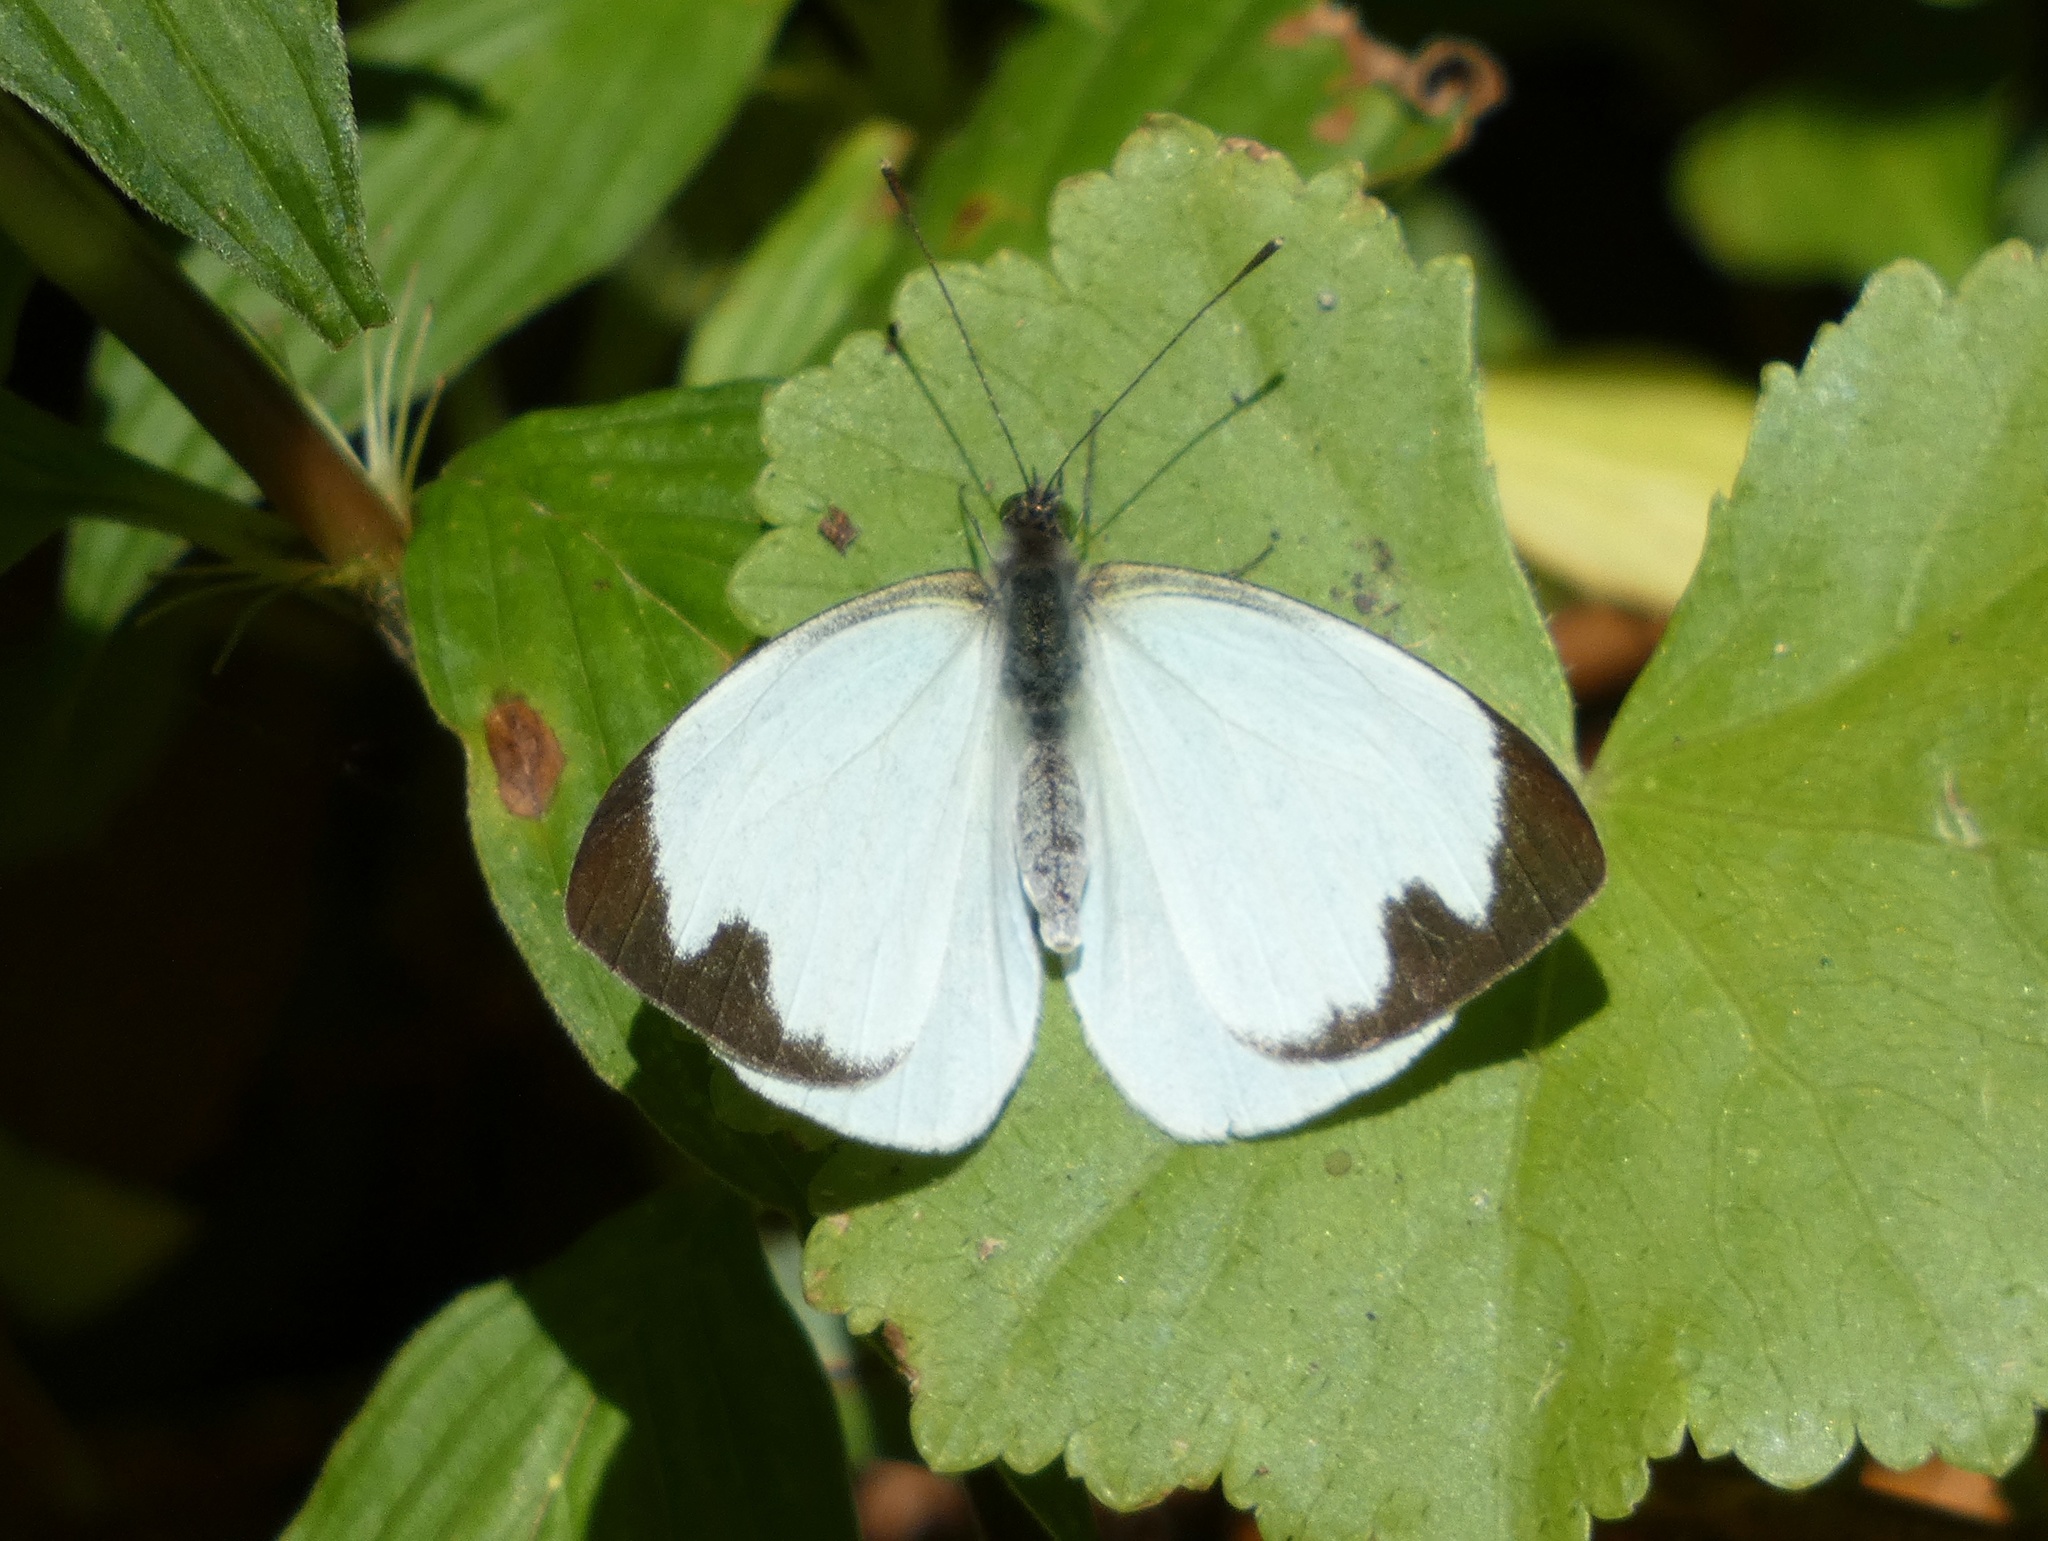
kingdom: Animalia
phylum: Arthropoda
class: Insecta
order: Lepidoptera
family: Pieridae
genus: Leptophobia
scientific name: Leptophobia aripa
